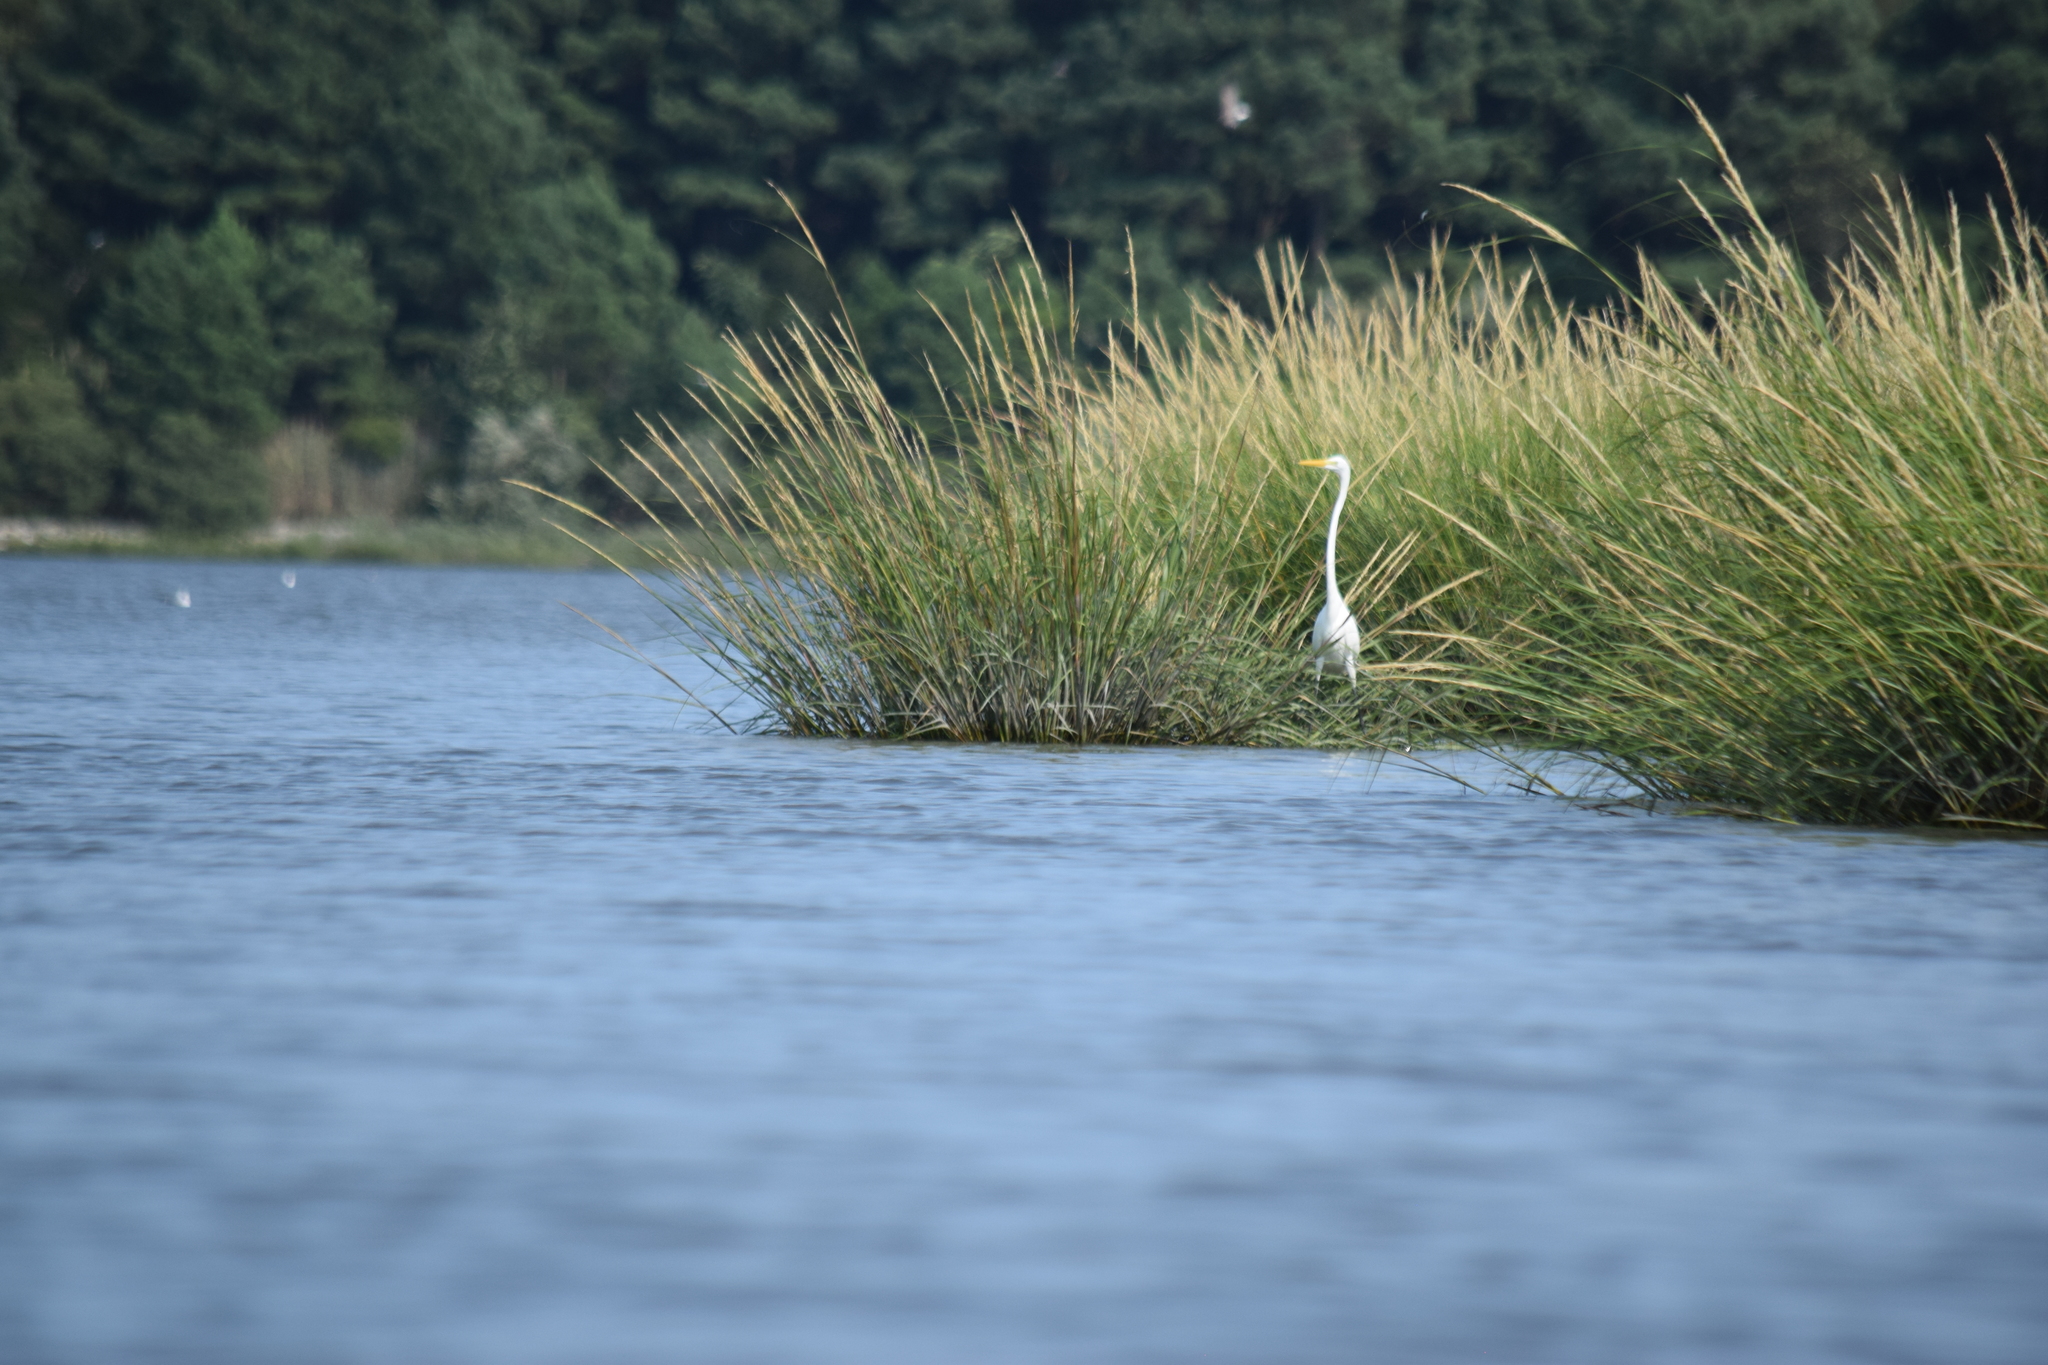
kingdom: Animalia
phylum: Chordata
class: Aves
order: Pelecaniformes
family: Ardeidae
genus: Ardea
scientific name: Ardea alba
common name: Great egret
